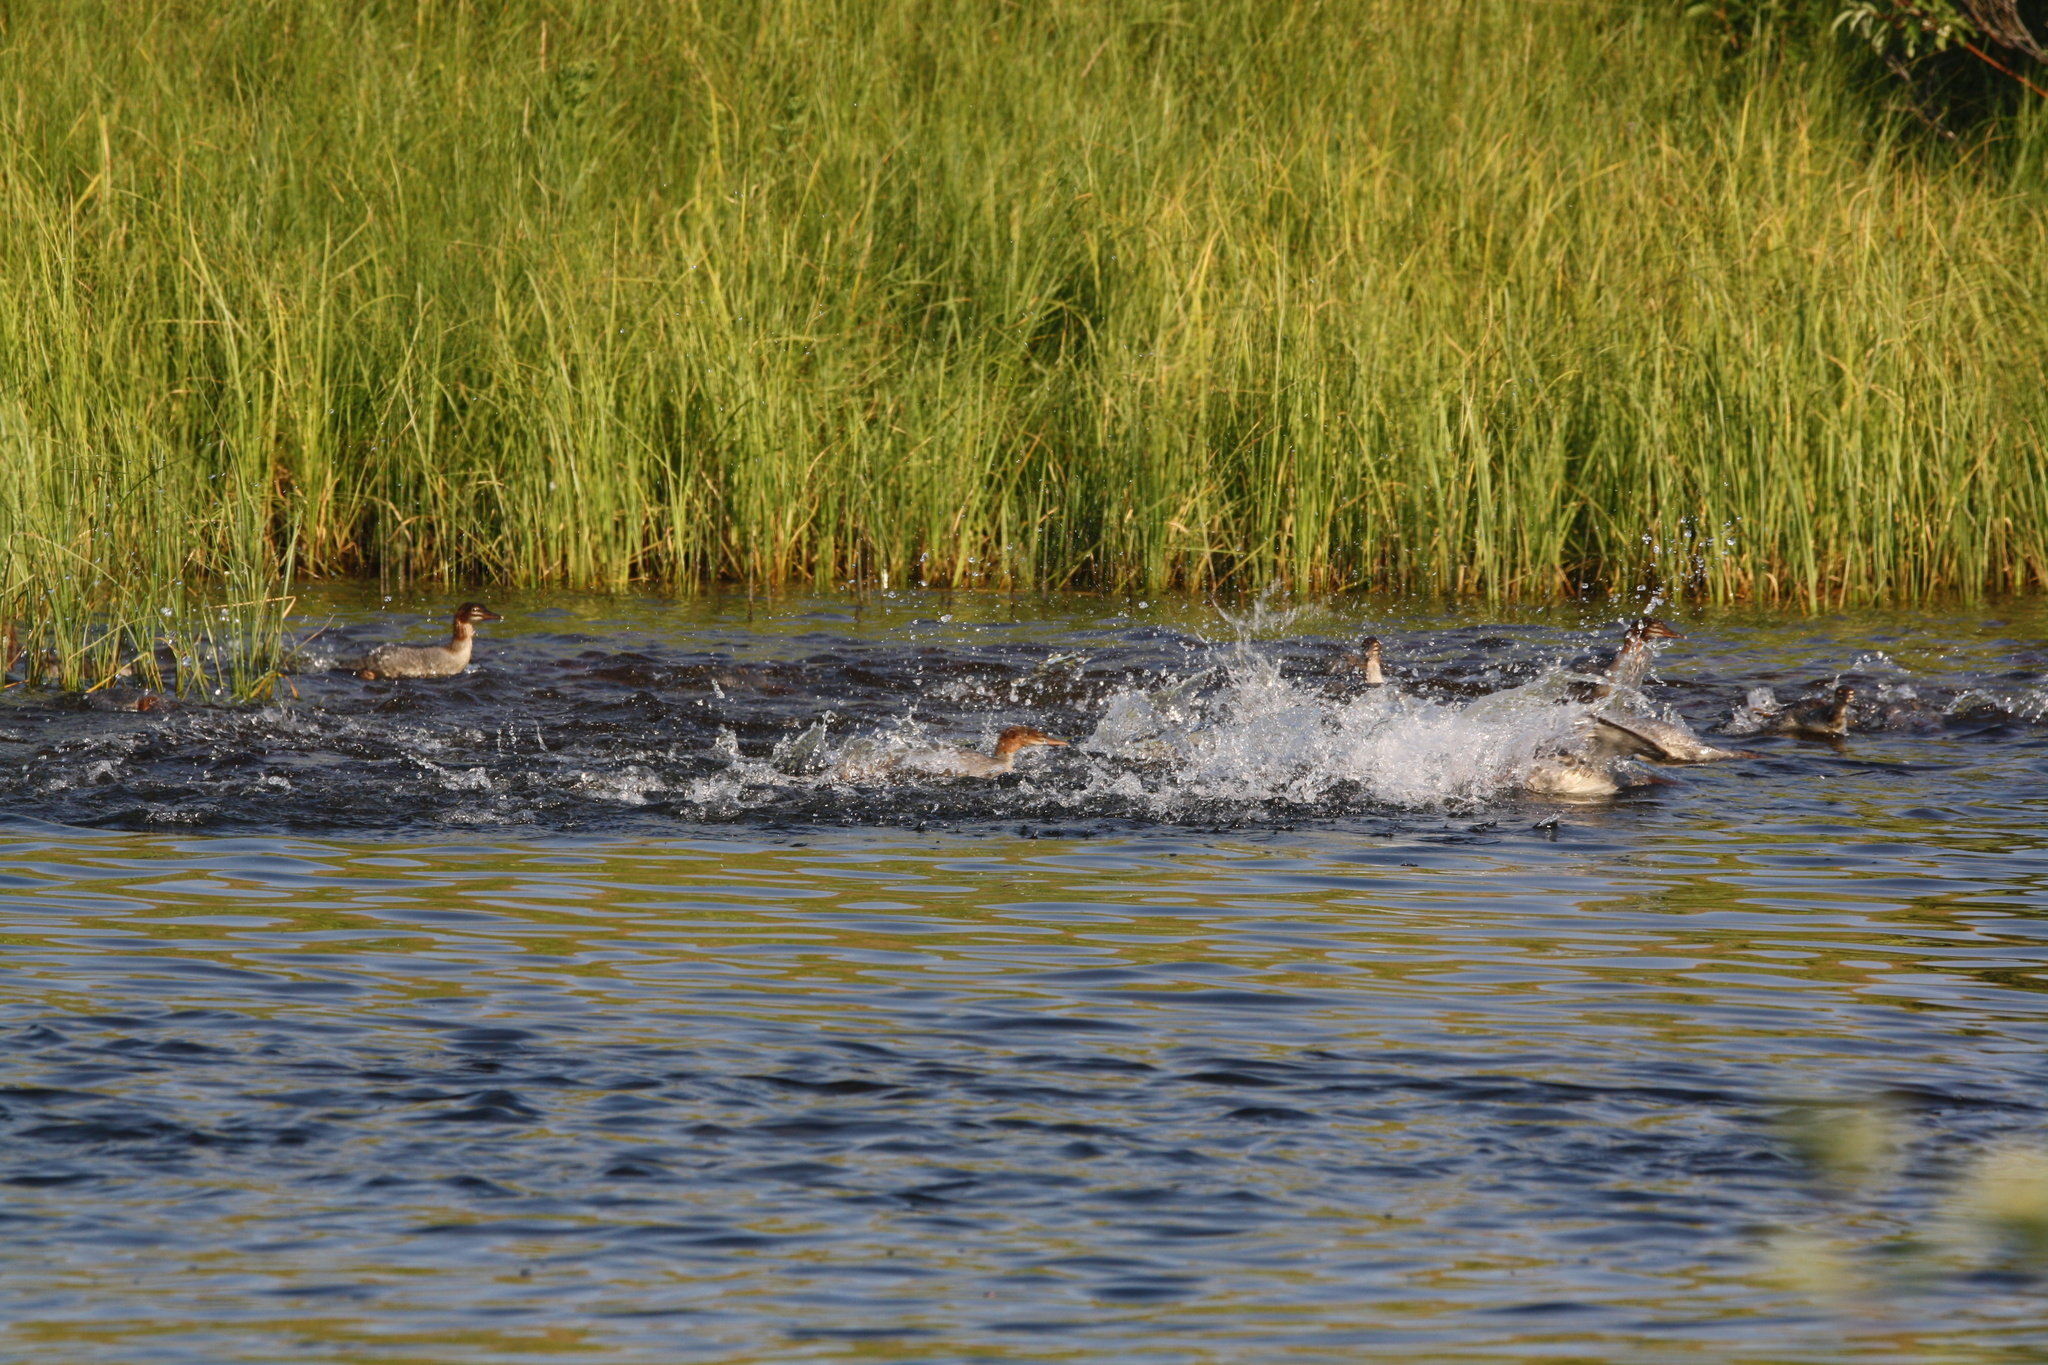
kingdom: Animalia
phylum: Chordata
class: Aves
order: Anseriformes
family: Anatidae
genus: Mergus
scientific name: Mergus merganser
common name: Common merganser
